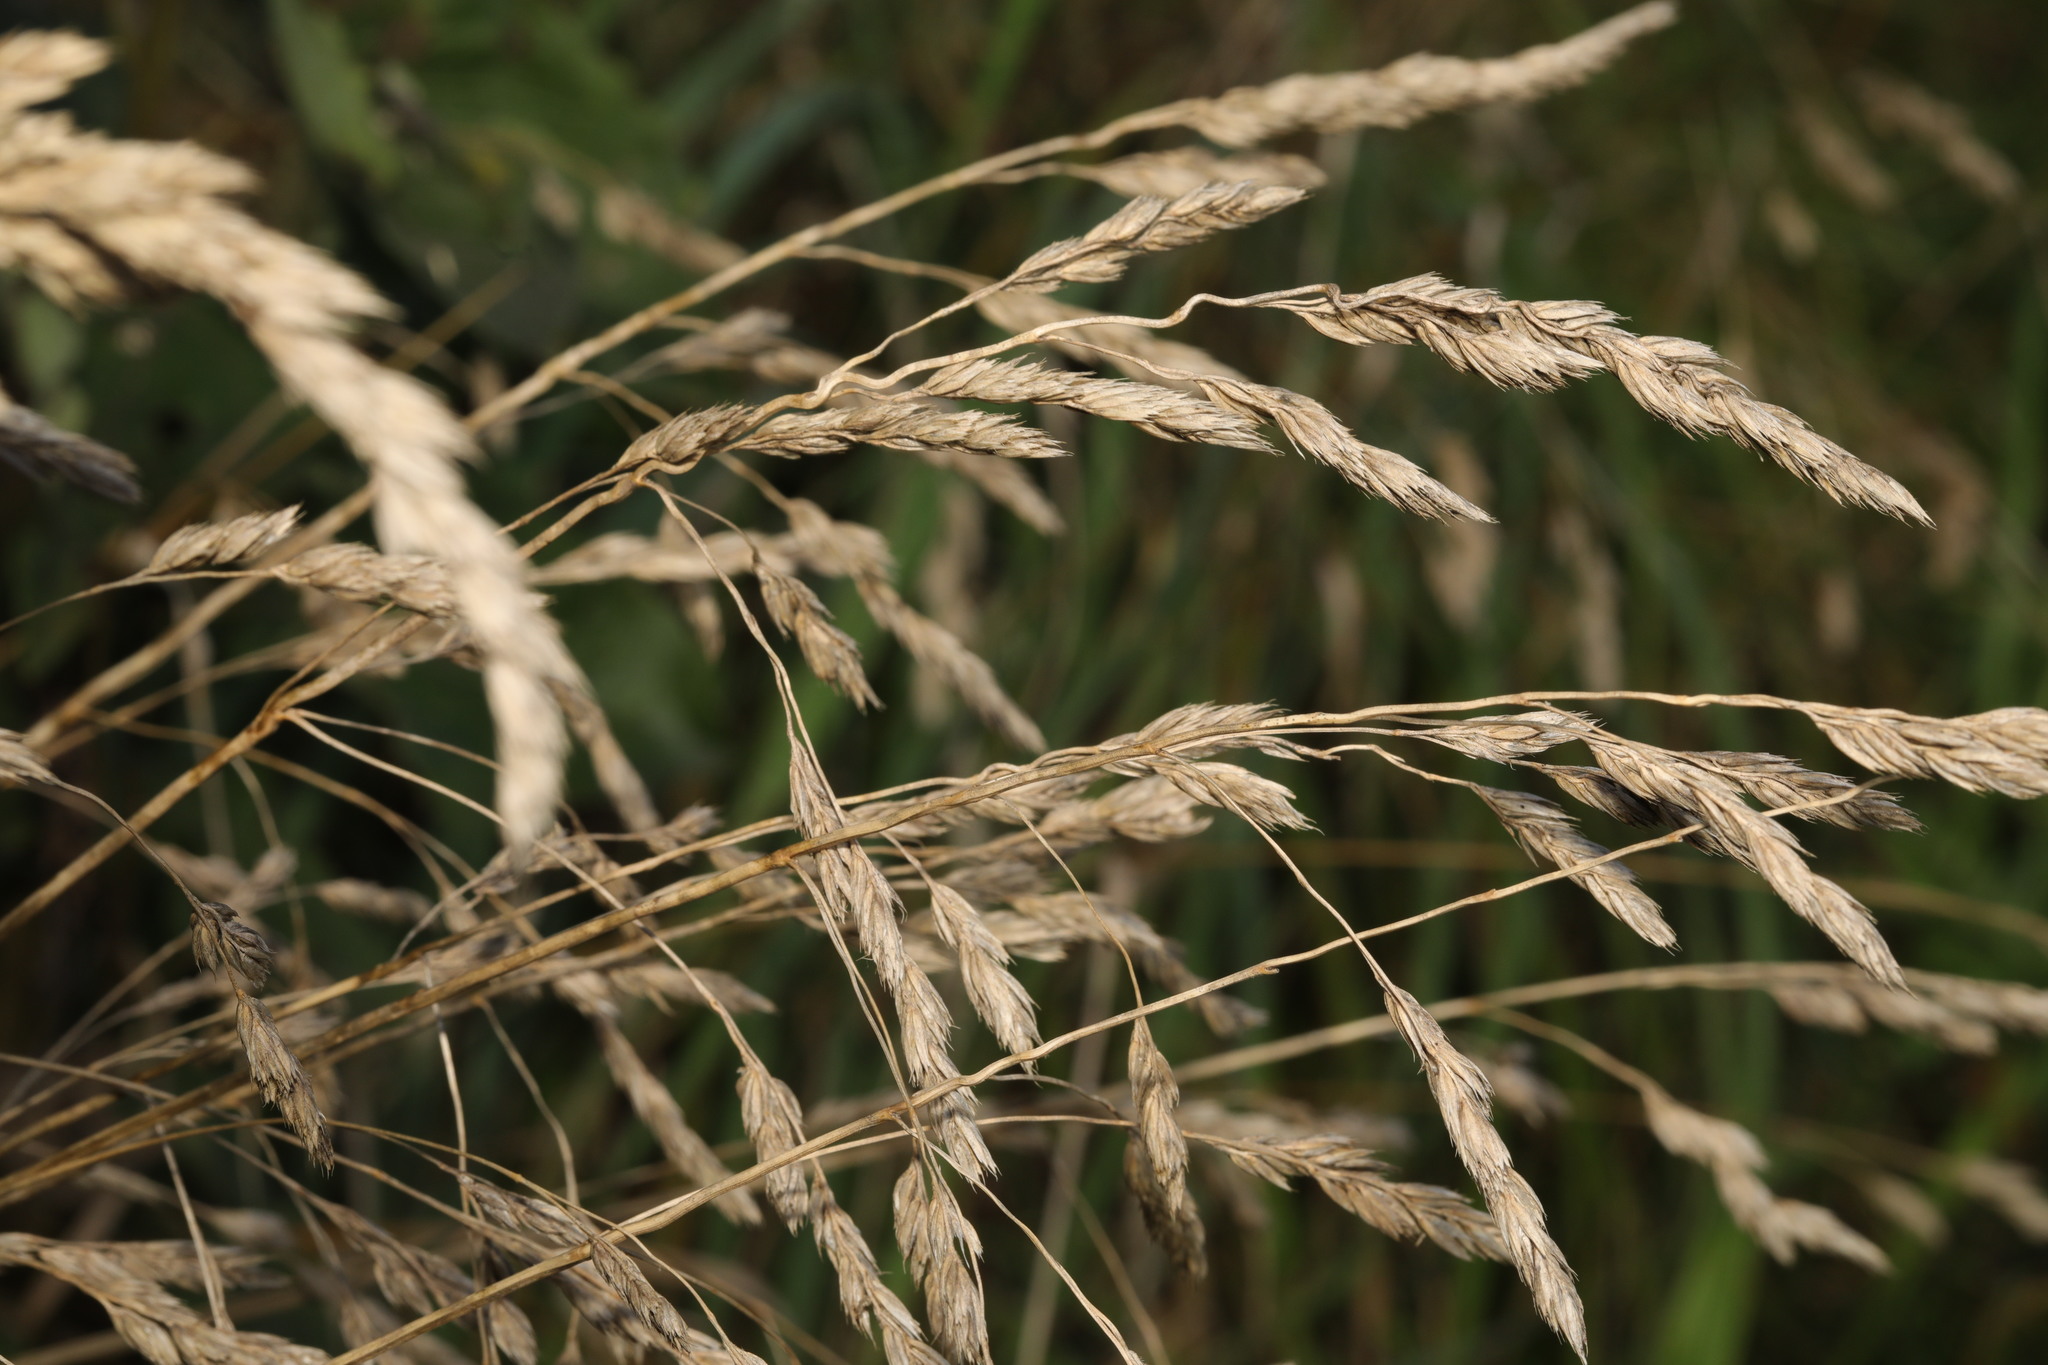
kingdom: Plantae
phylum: Tracheophyta
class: Liliopsida
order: Poales
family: Poaceae
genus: Dactylis
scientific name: Dactylis glomerata
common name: Orchardgrass
